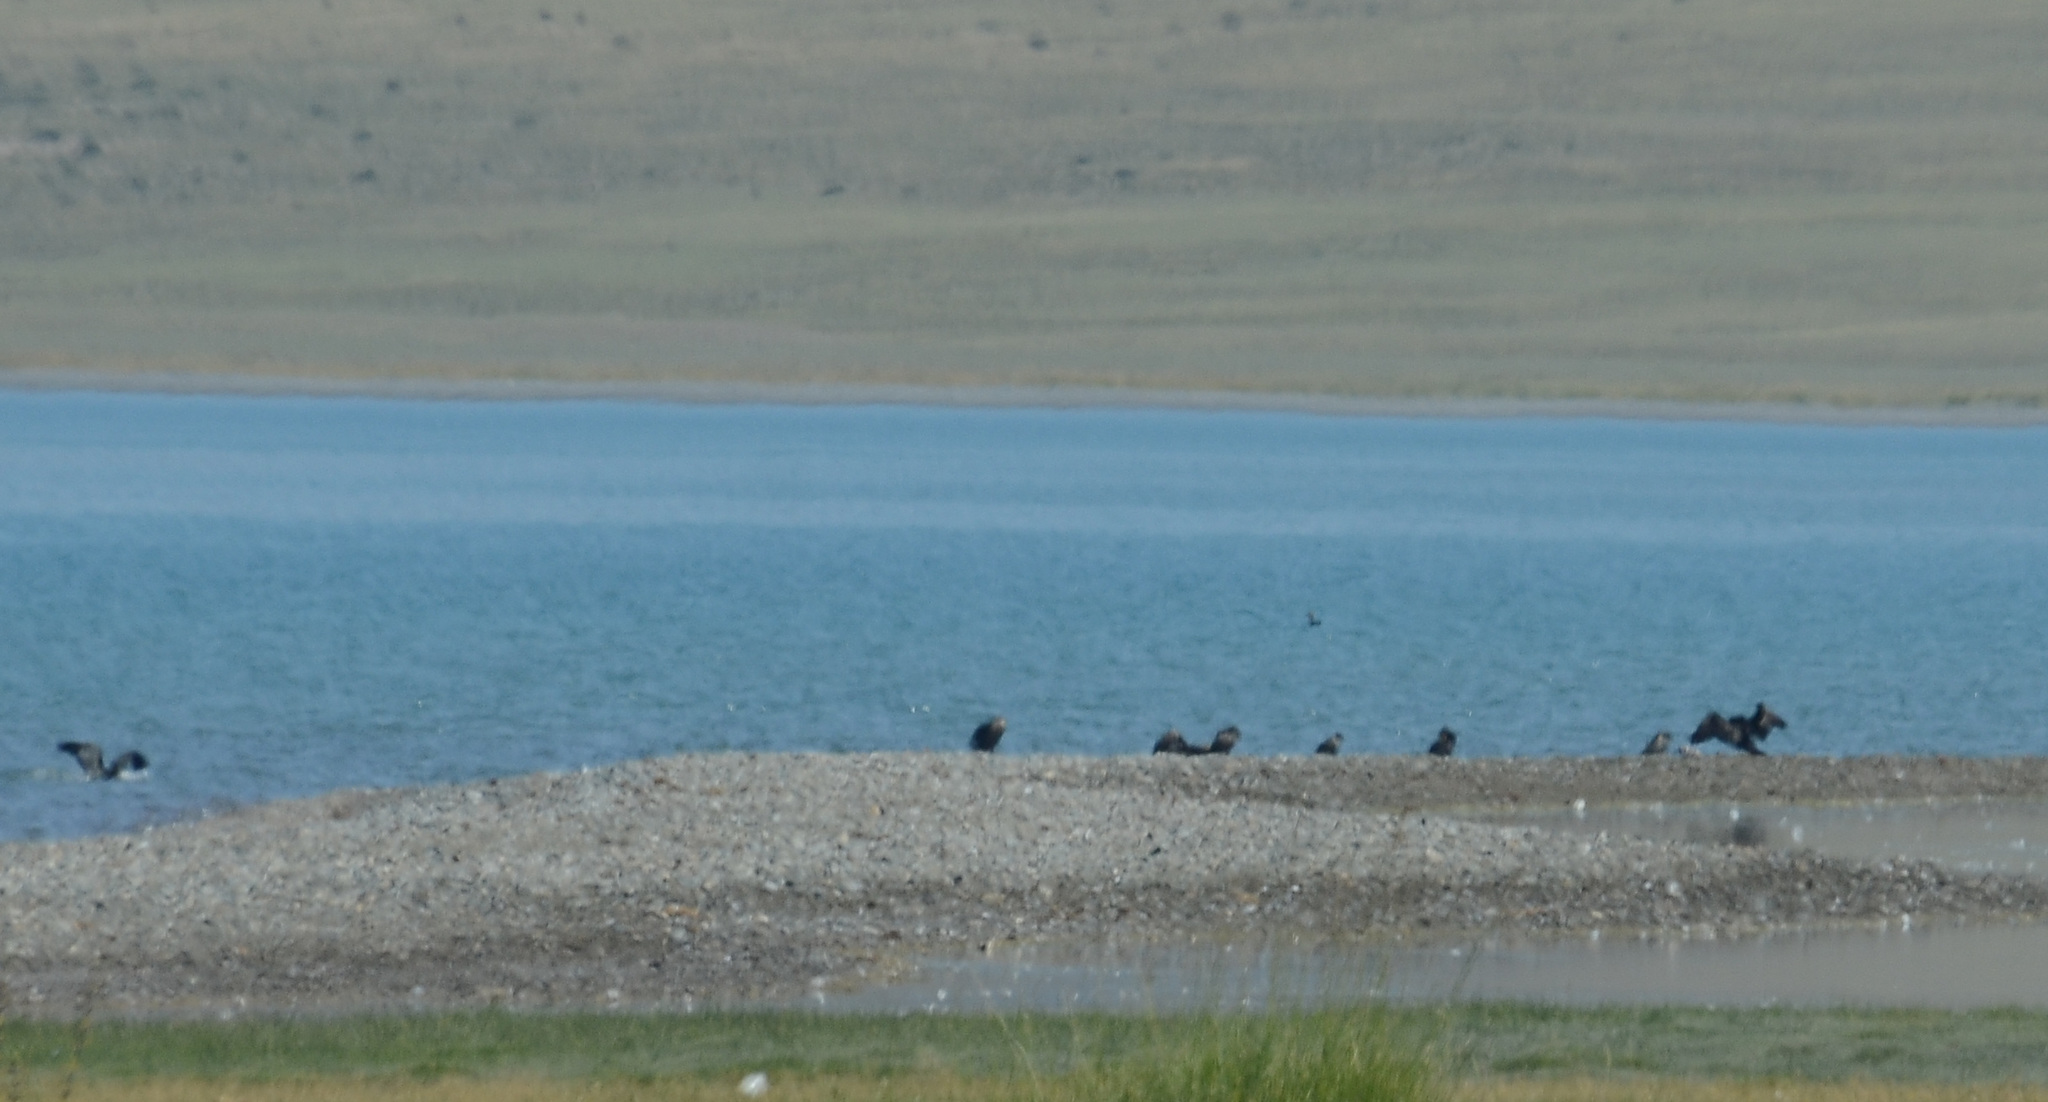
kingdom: Animalia
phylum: Chordata
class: Aves
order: Suliformes
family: Phalacrocoracidae
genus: Phalacrocorax
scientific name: Phalacrocorax carbo
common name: Great cormorant
